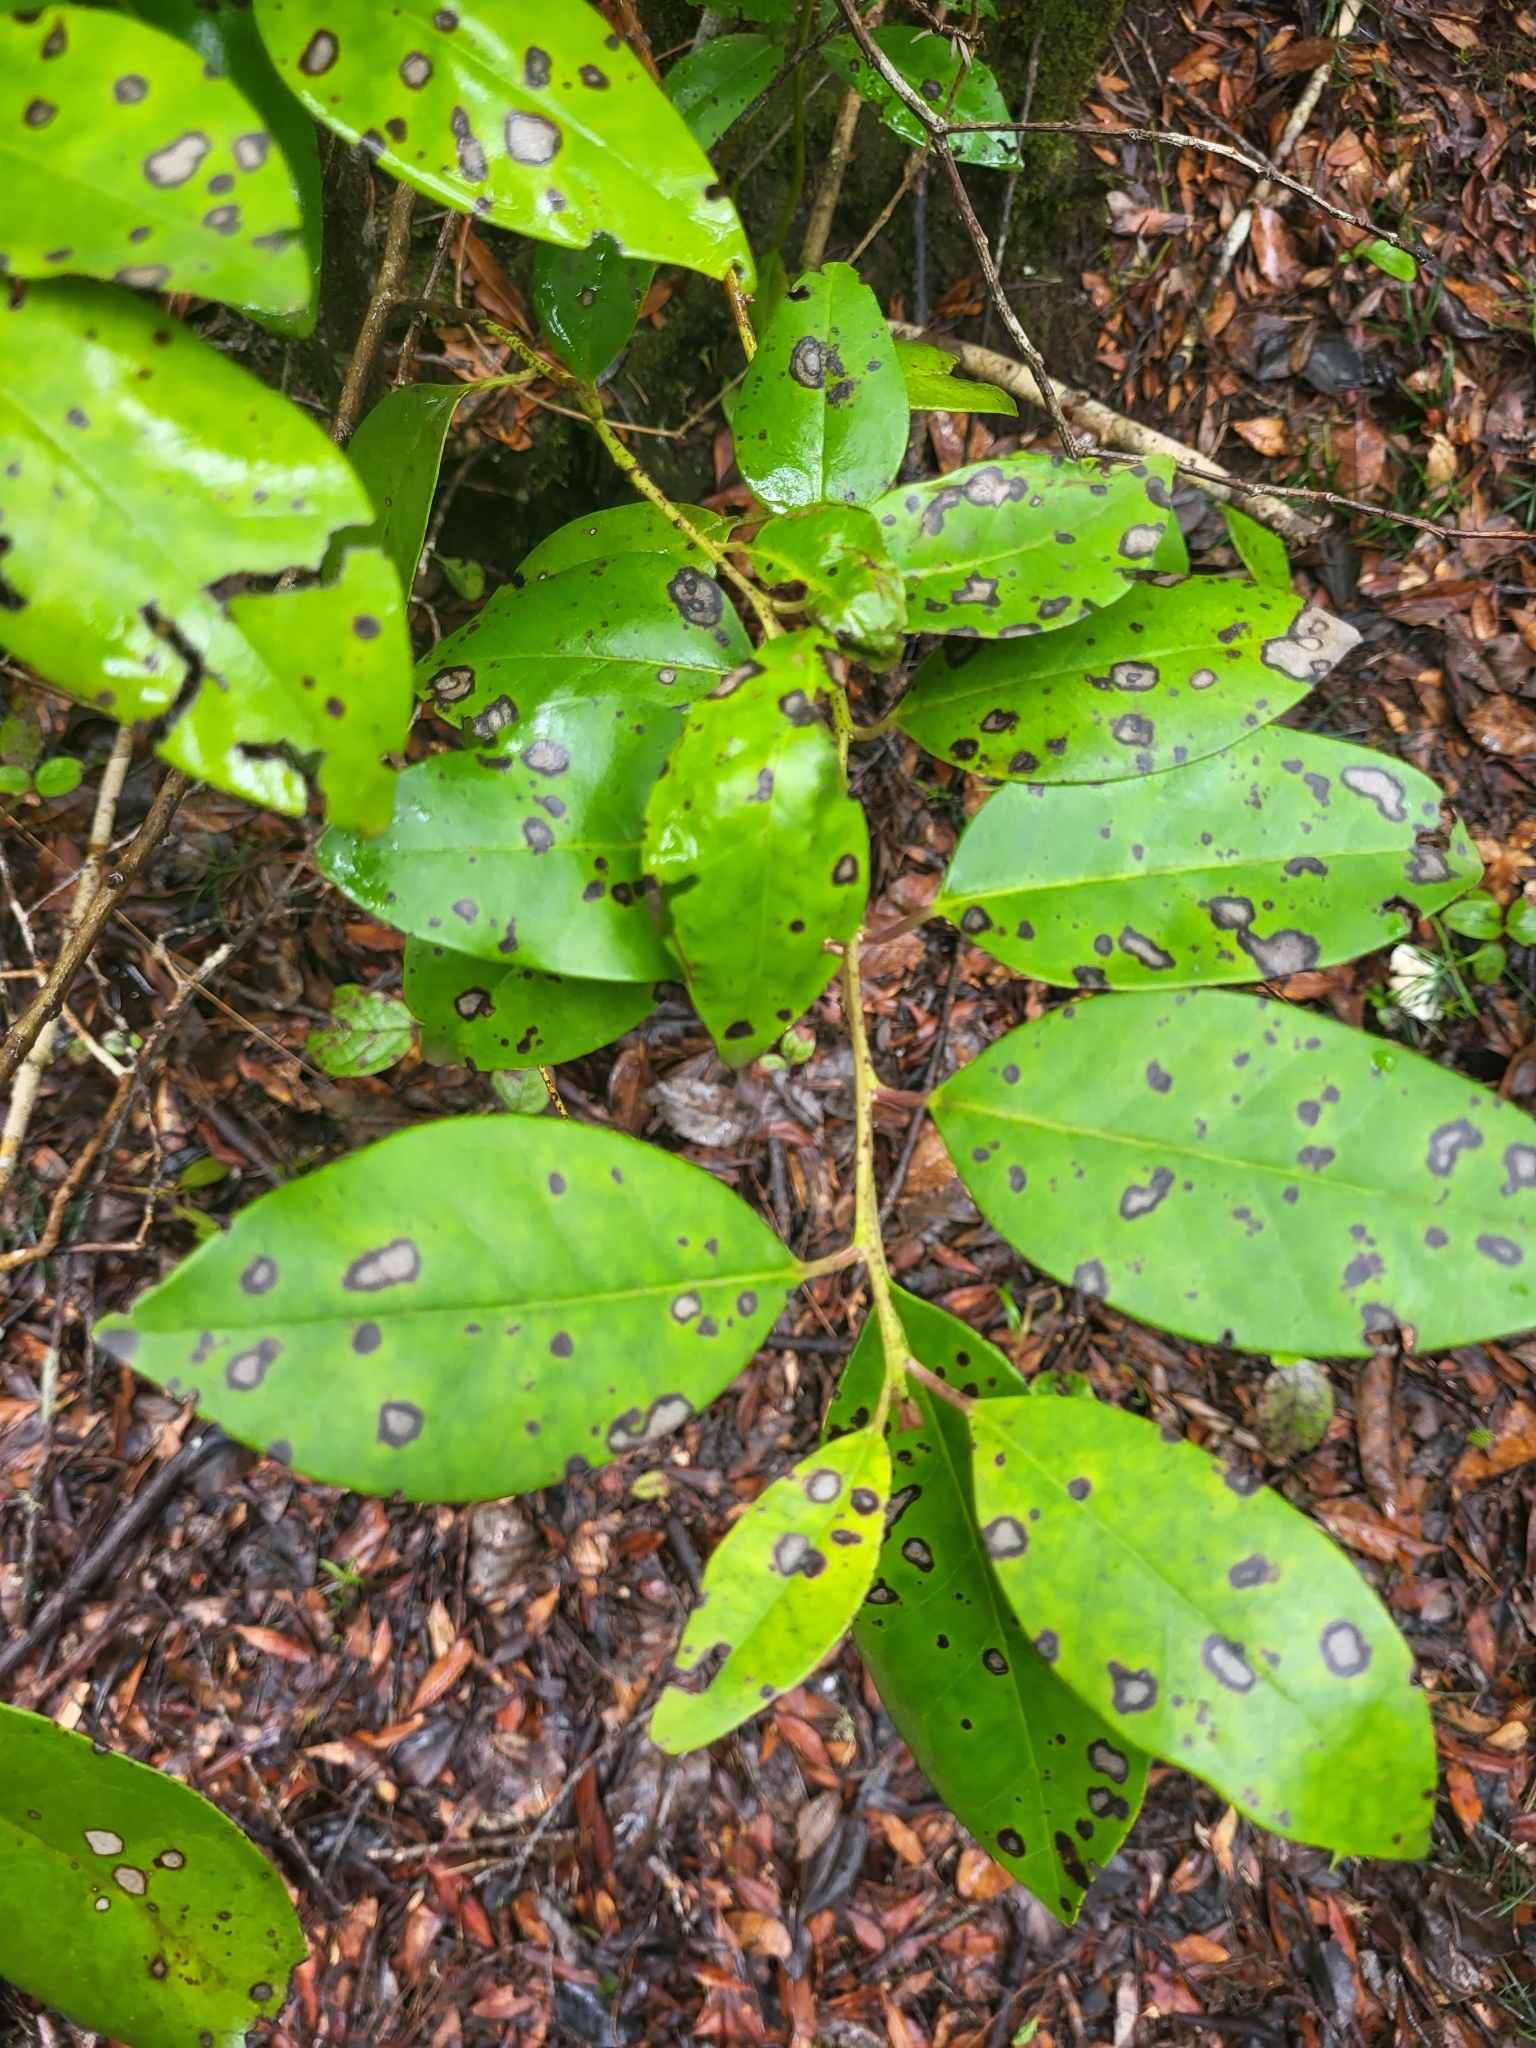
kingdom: Plantae
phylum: Tracheophyta
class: Magnoliopsida
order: Aquifoliales
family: Aquifoliaceae
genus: Ilex
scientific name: Ilex canariensis
